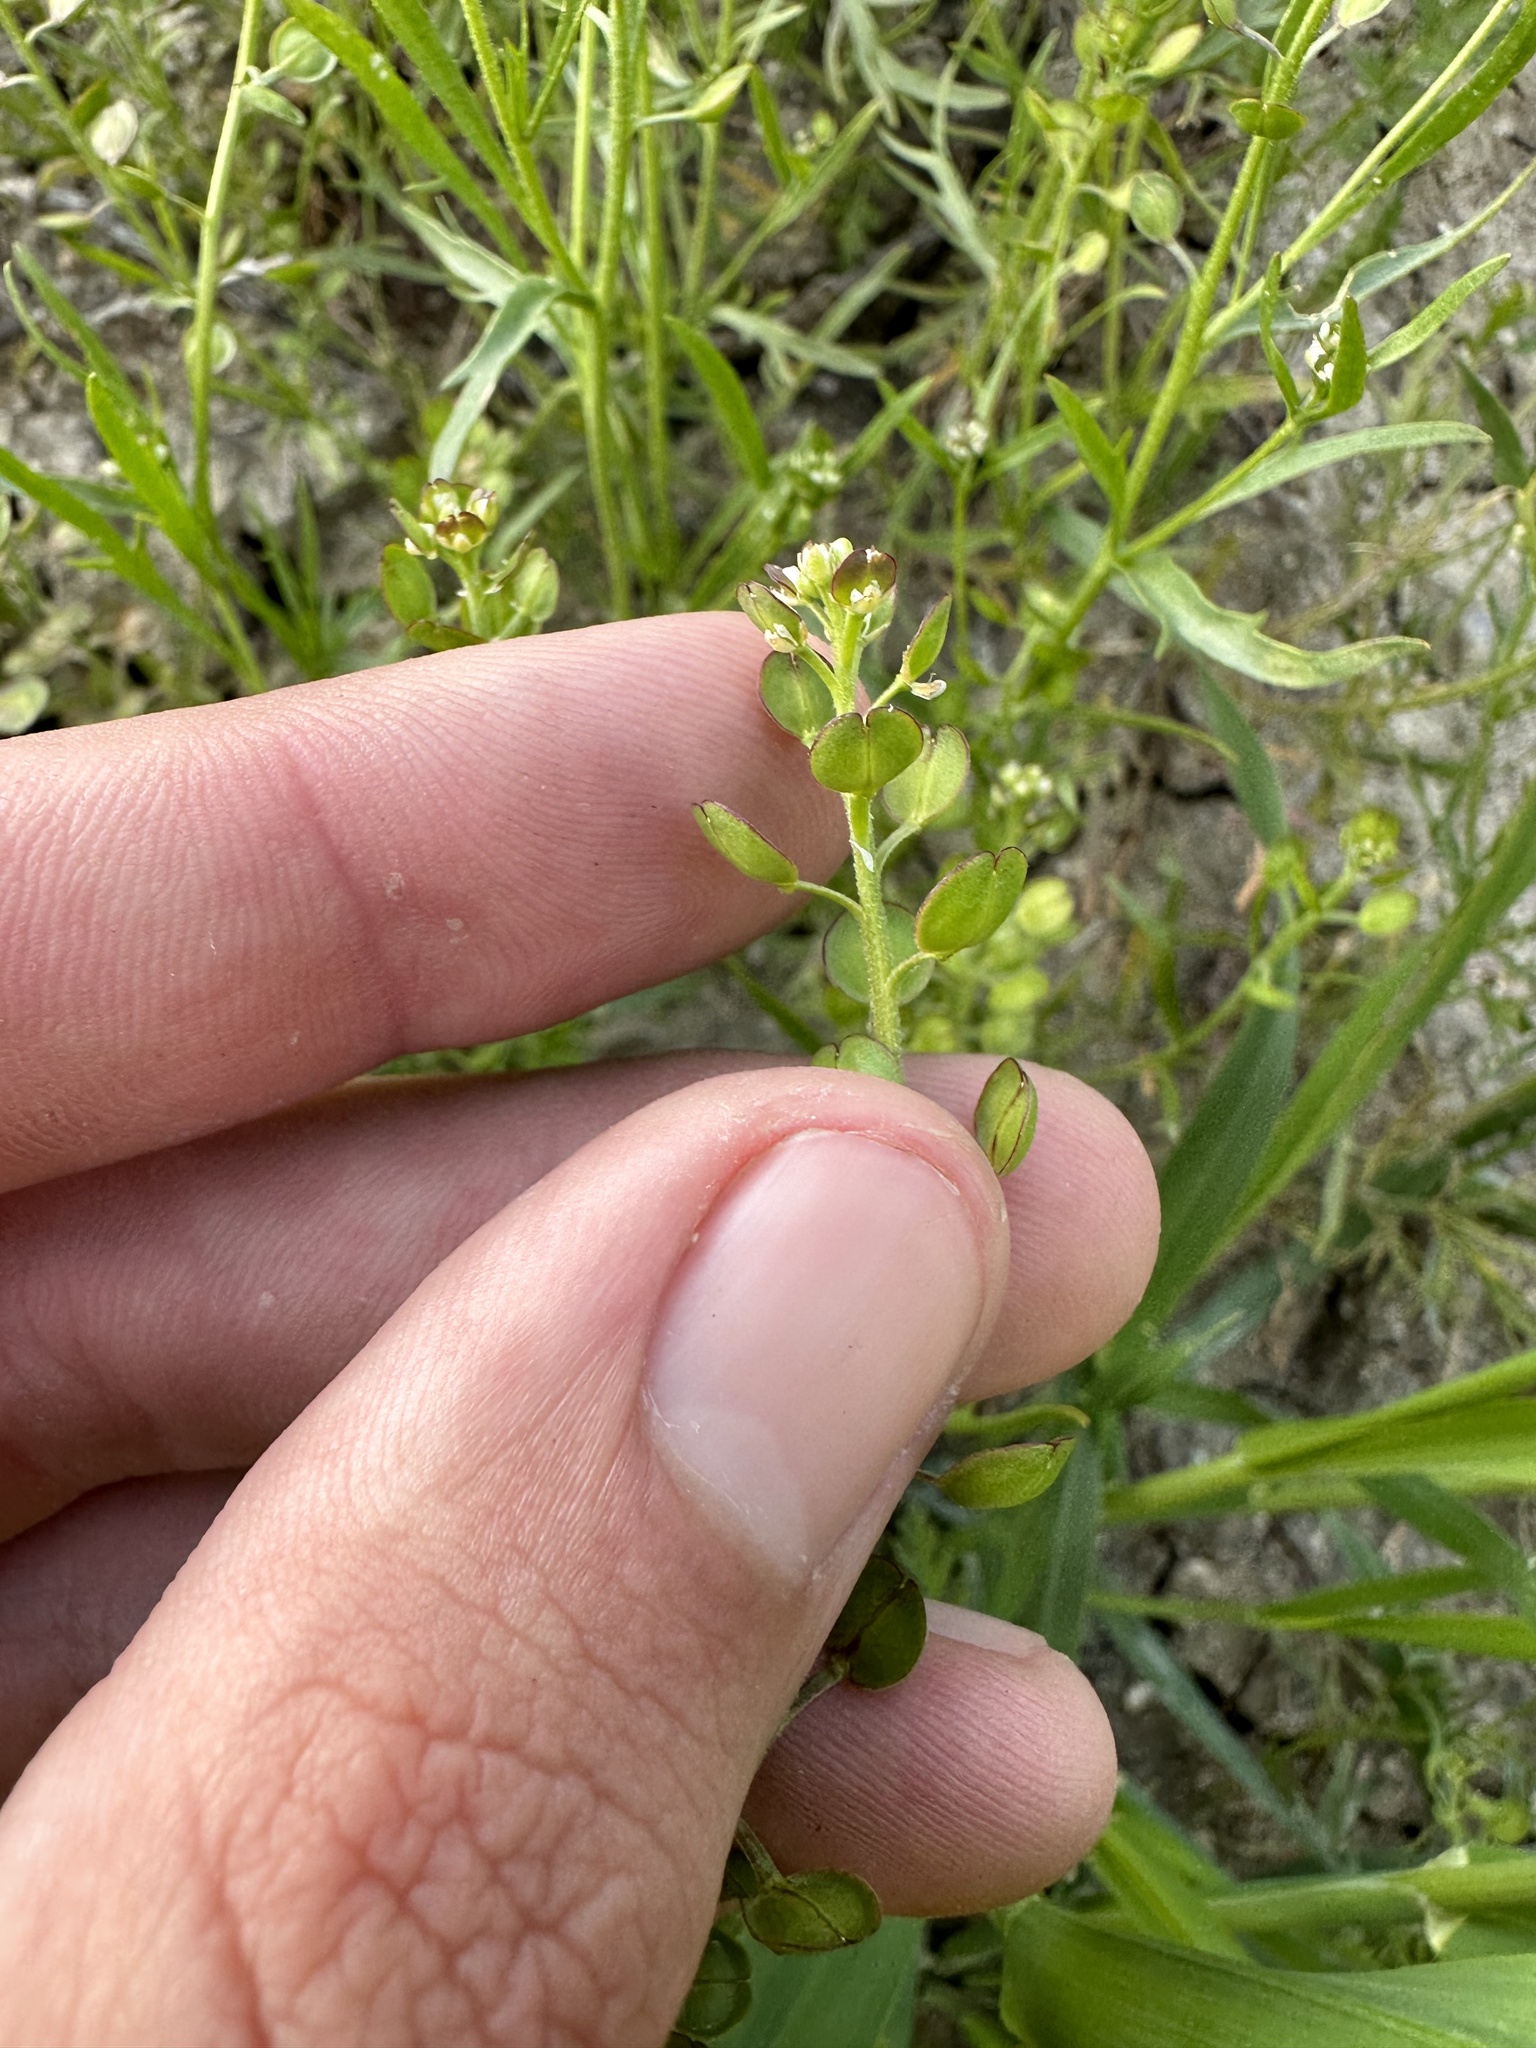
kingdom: Plantae
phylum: Tracheophyta
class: Magnoliopsida
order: Brassicales
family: Brassicaceae
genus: Lepidium
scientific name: Lepidium nitidum
